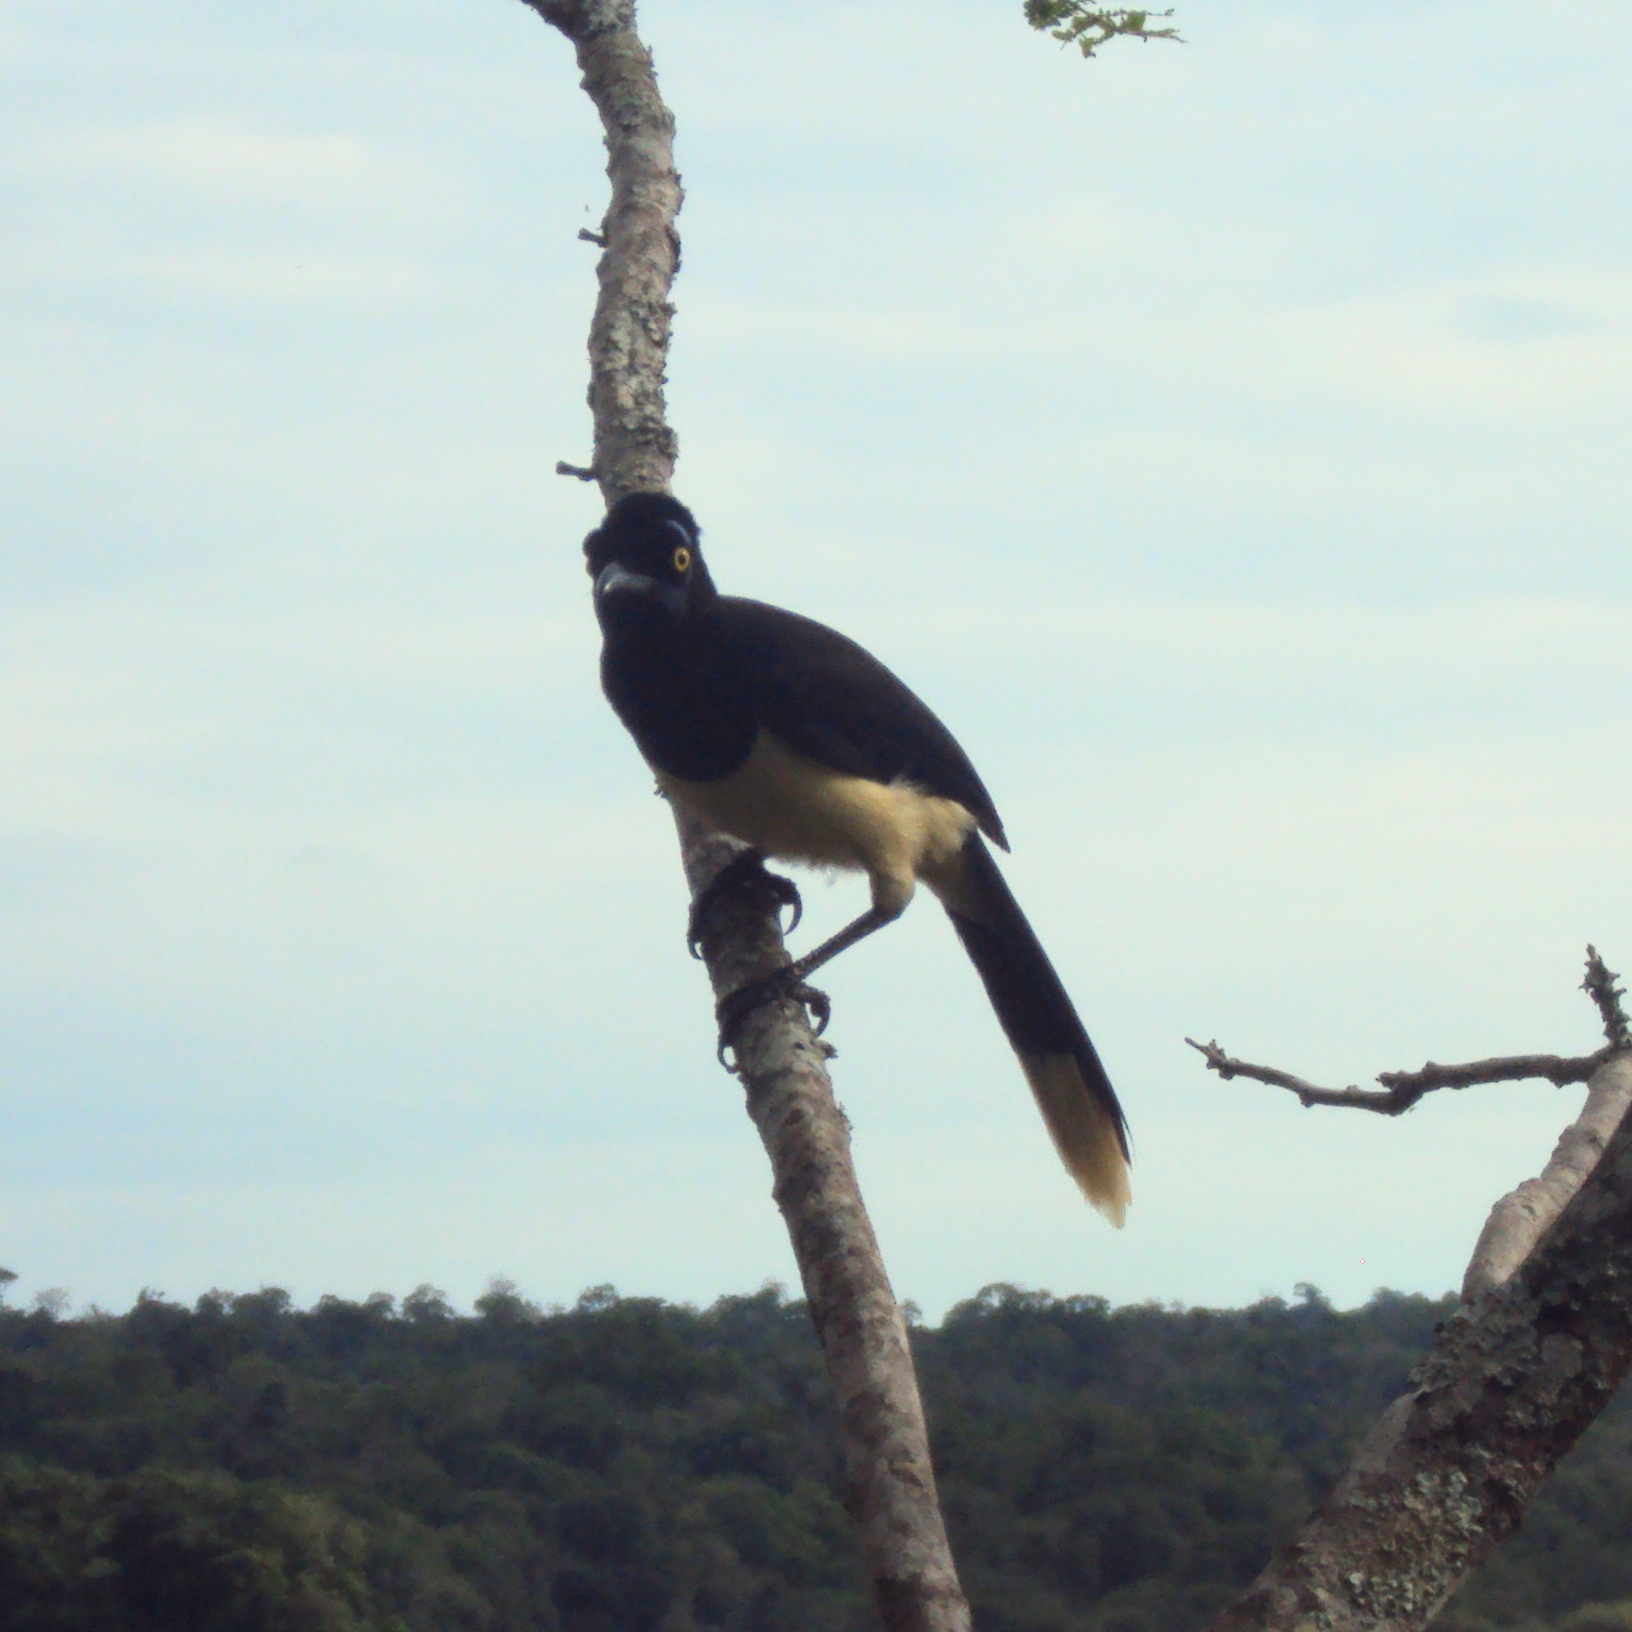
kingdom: Animalia
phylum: Chordata
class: Aves
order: Passeriformes
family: Corvidae
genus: Cyanocorax
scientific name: Cyanocorax chrysops
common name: Plush-crested jay
